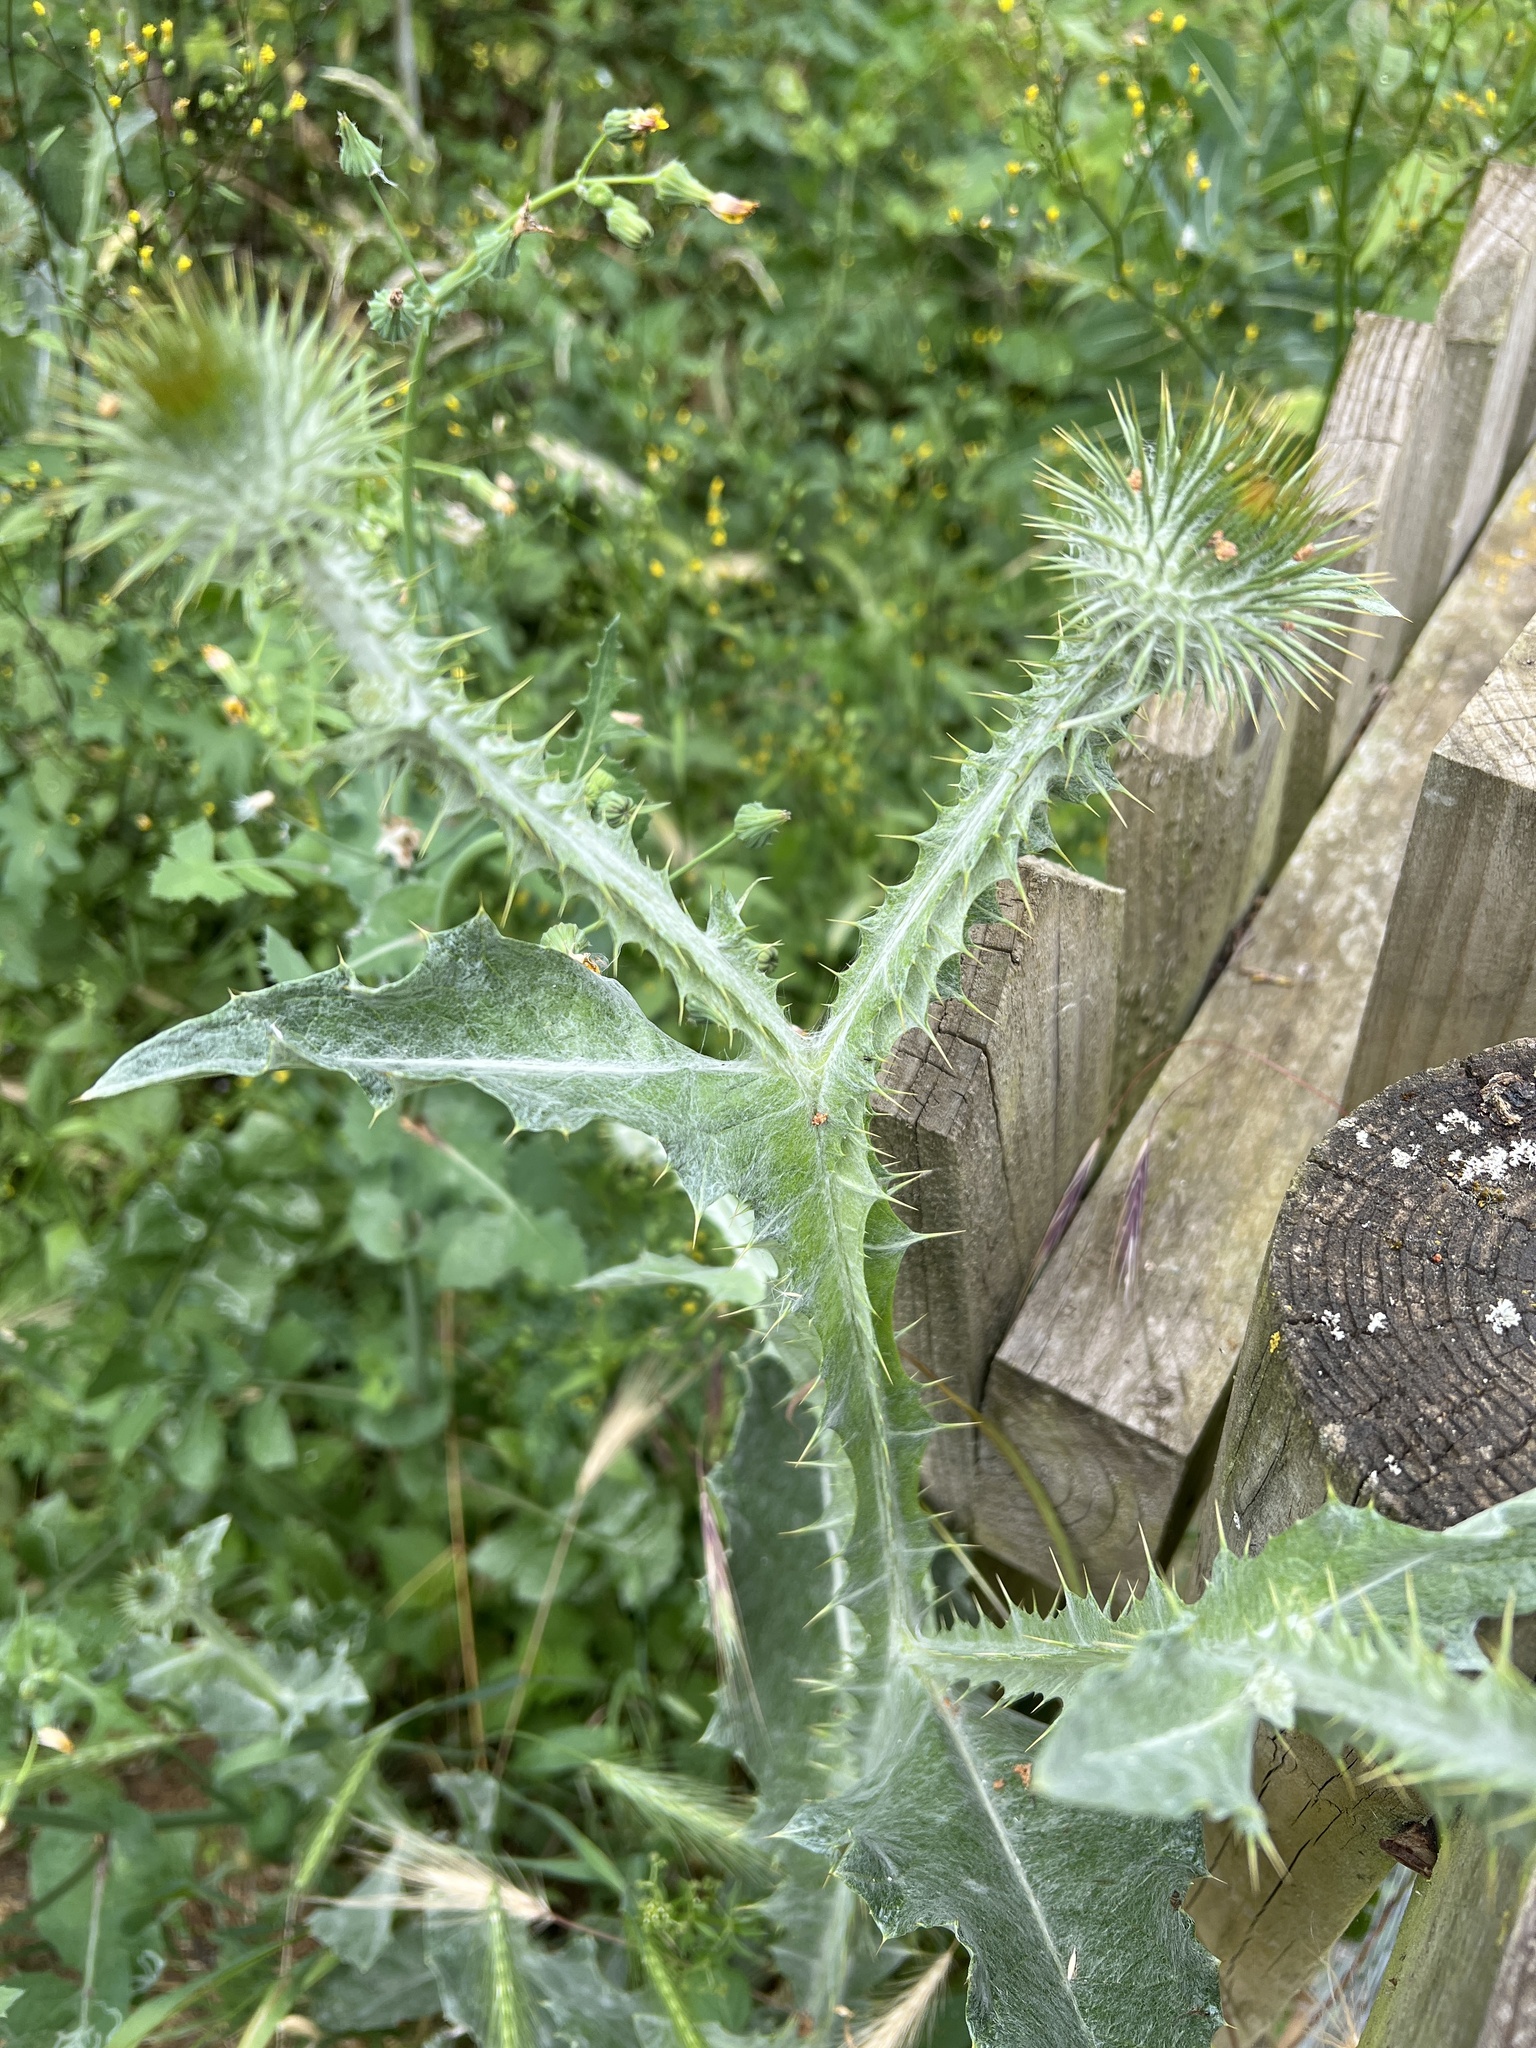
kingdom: Plantae
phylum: Tracheophyta
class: Magnoliopsida
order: Asterales
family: Asteraceae
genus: Onopordum
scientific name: Onopordum acanthium
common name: Scotch thistle
